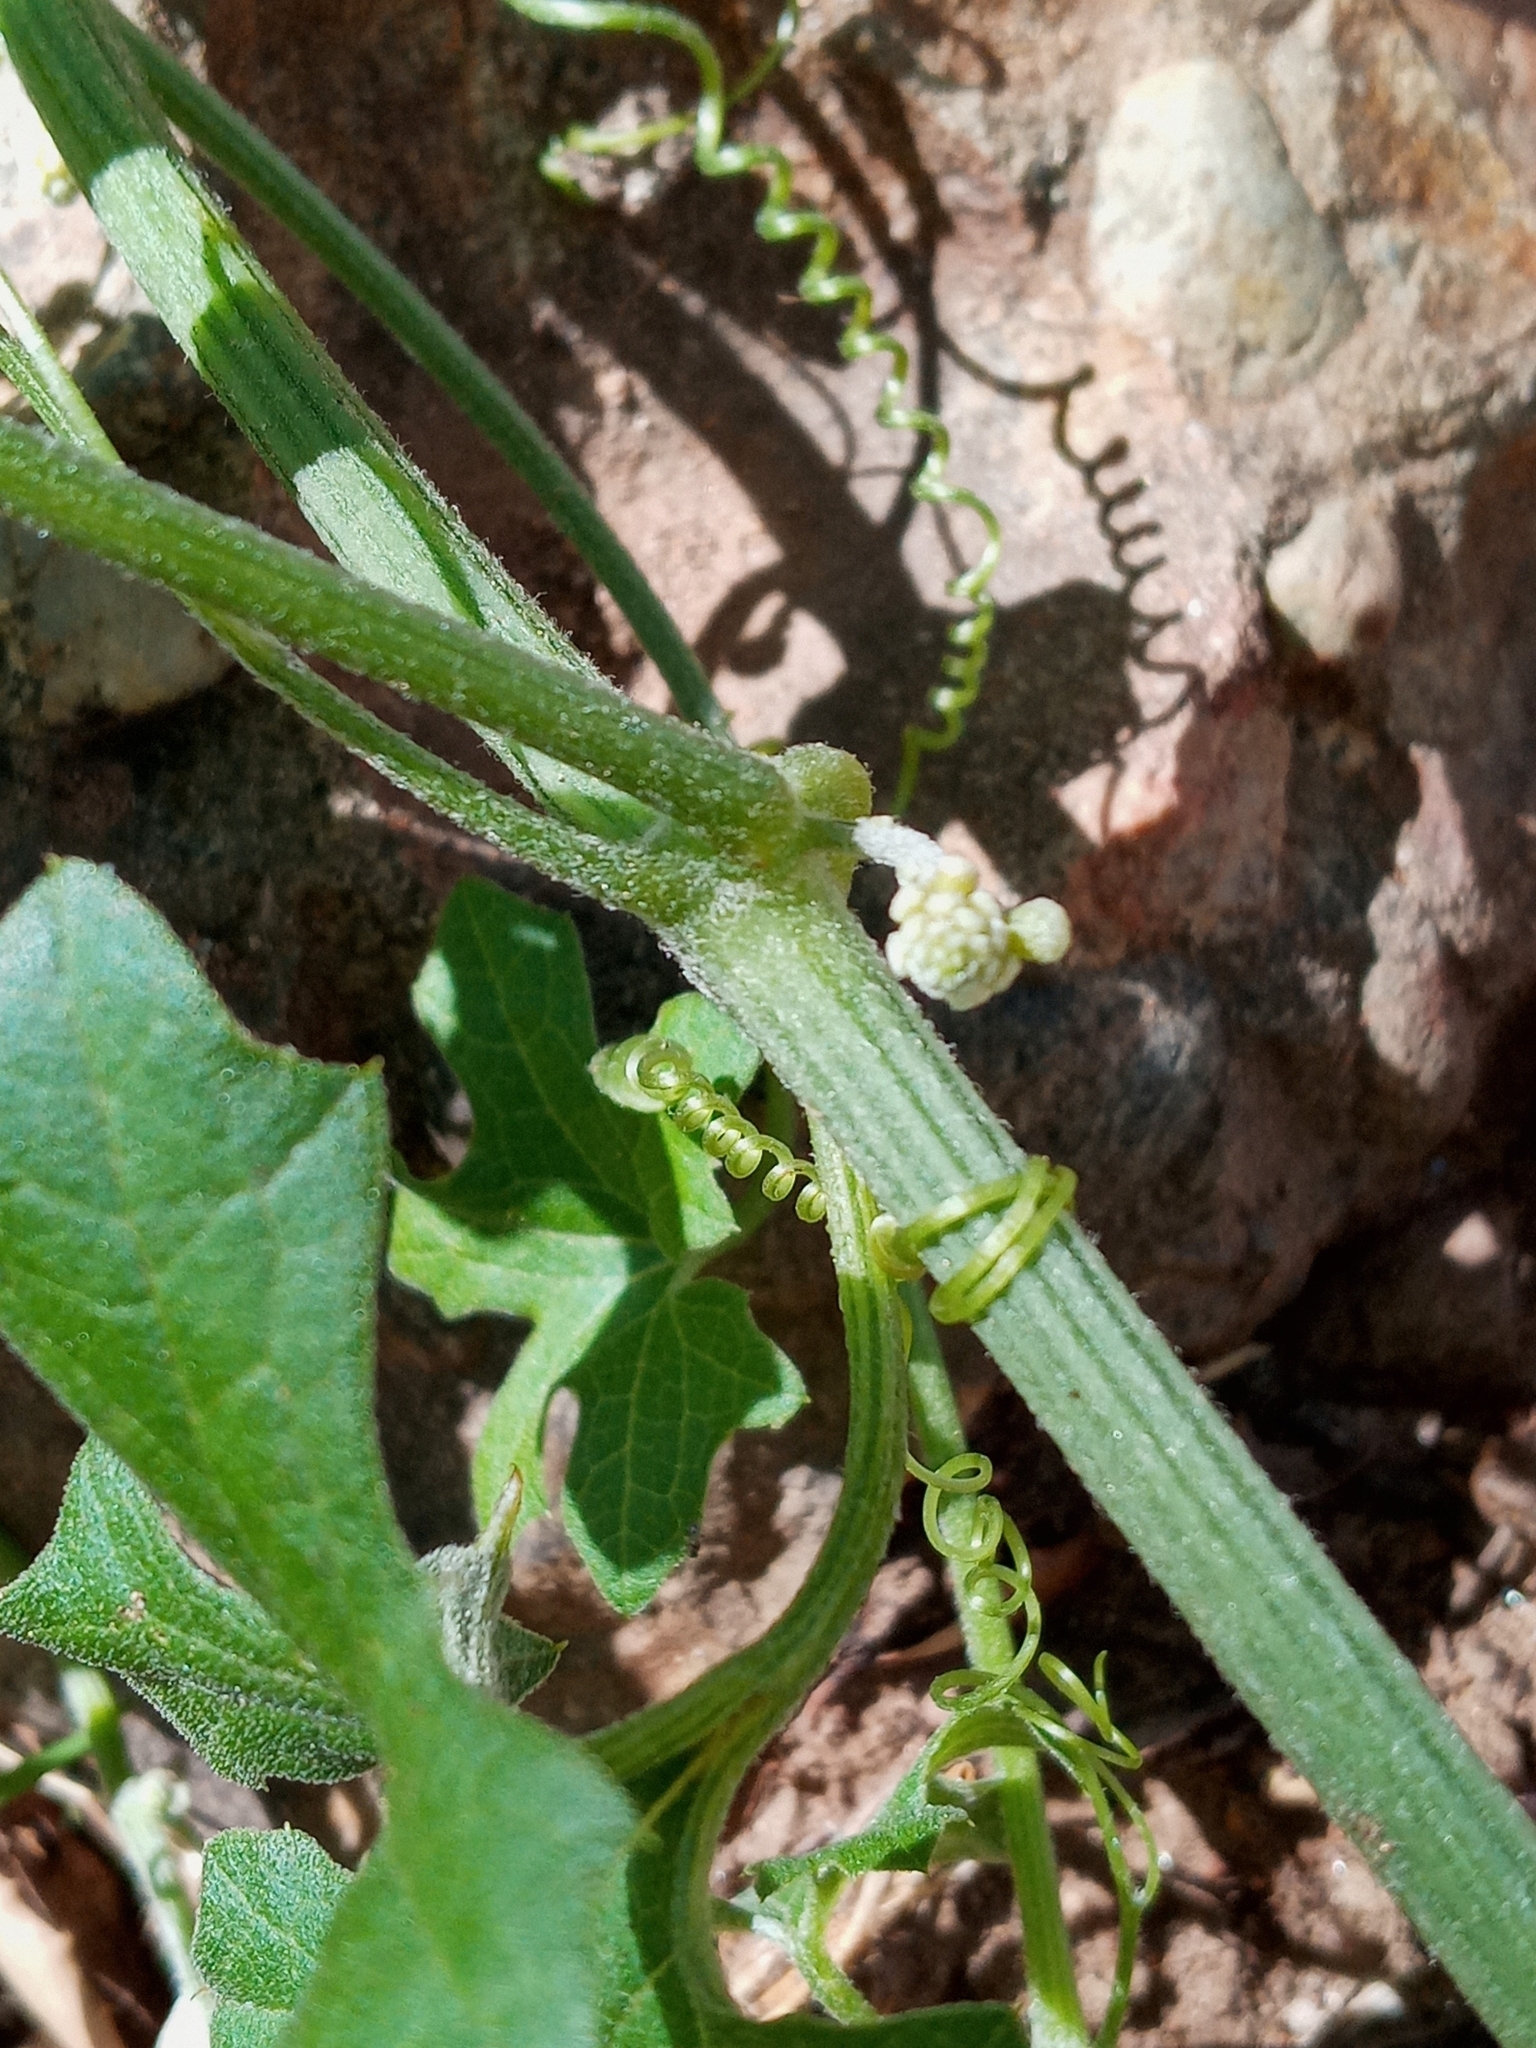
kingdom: Plantae
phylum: Tracheophyta
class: Magnoliopsida
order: Cucurbitales
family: Cucurbitaceae
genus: Marah
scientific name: Marah macrocarpa
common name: Cucamonga manroot
